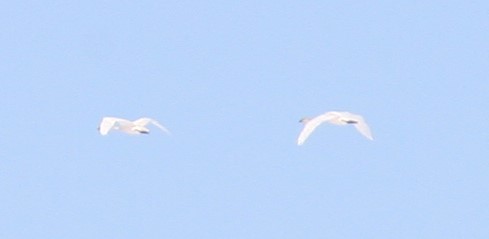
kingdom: Animalia
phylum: Chordata
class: Aves
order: Anseriformes
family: Anatidae
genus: Cygnus
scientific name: Cygnus buccinator
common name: Trumpeter swan
